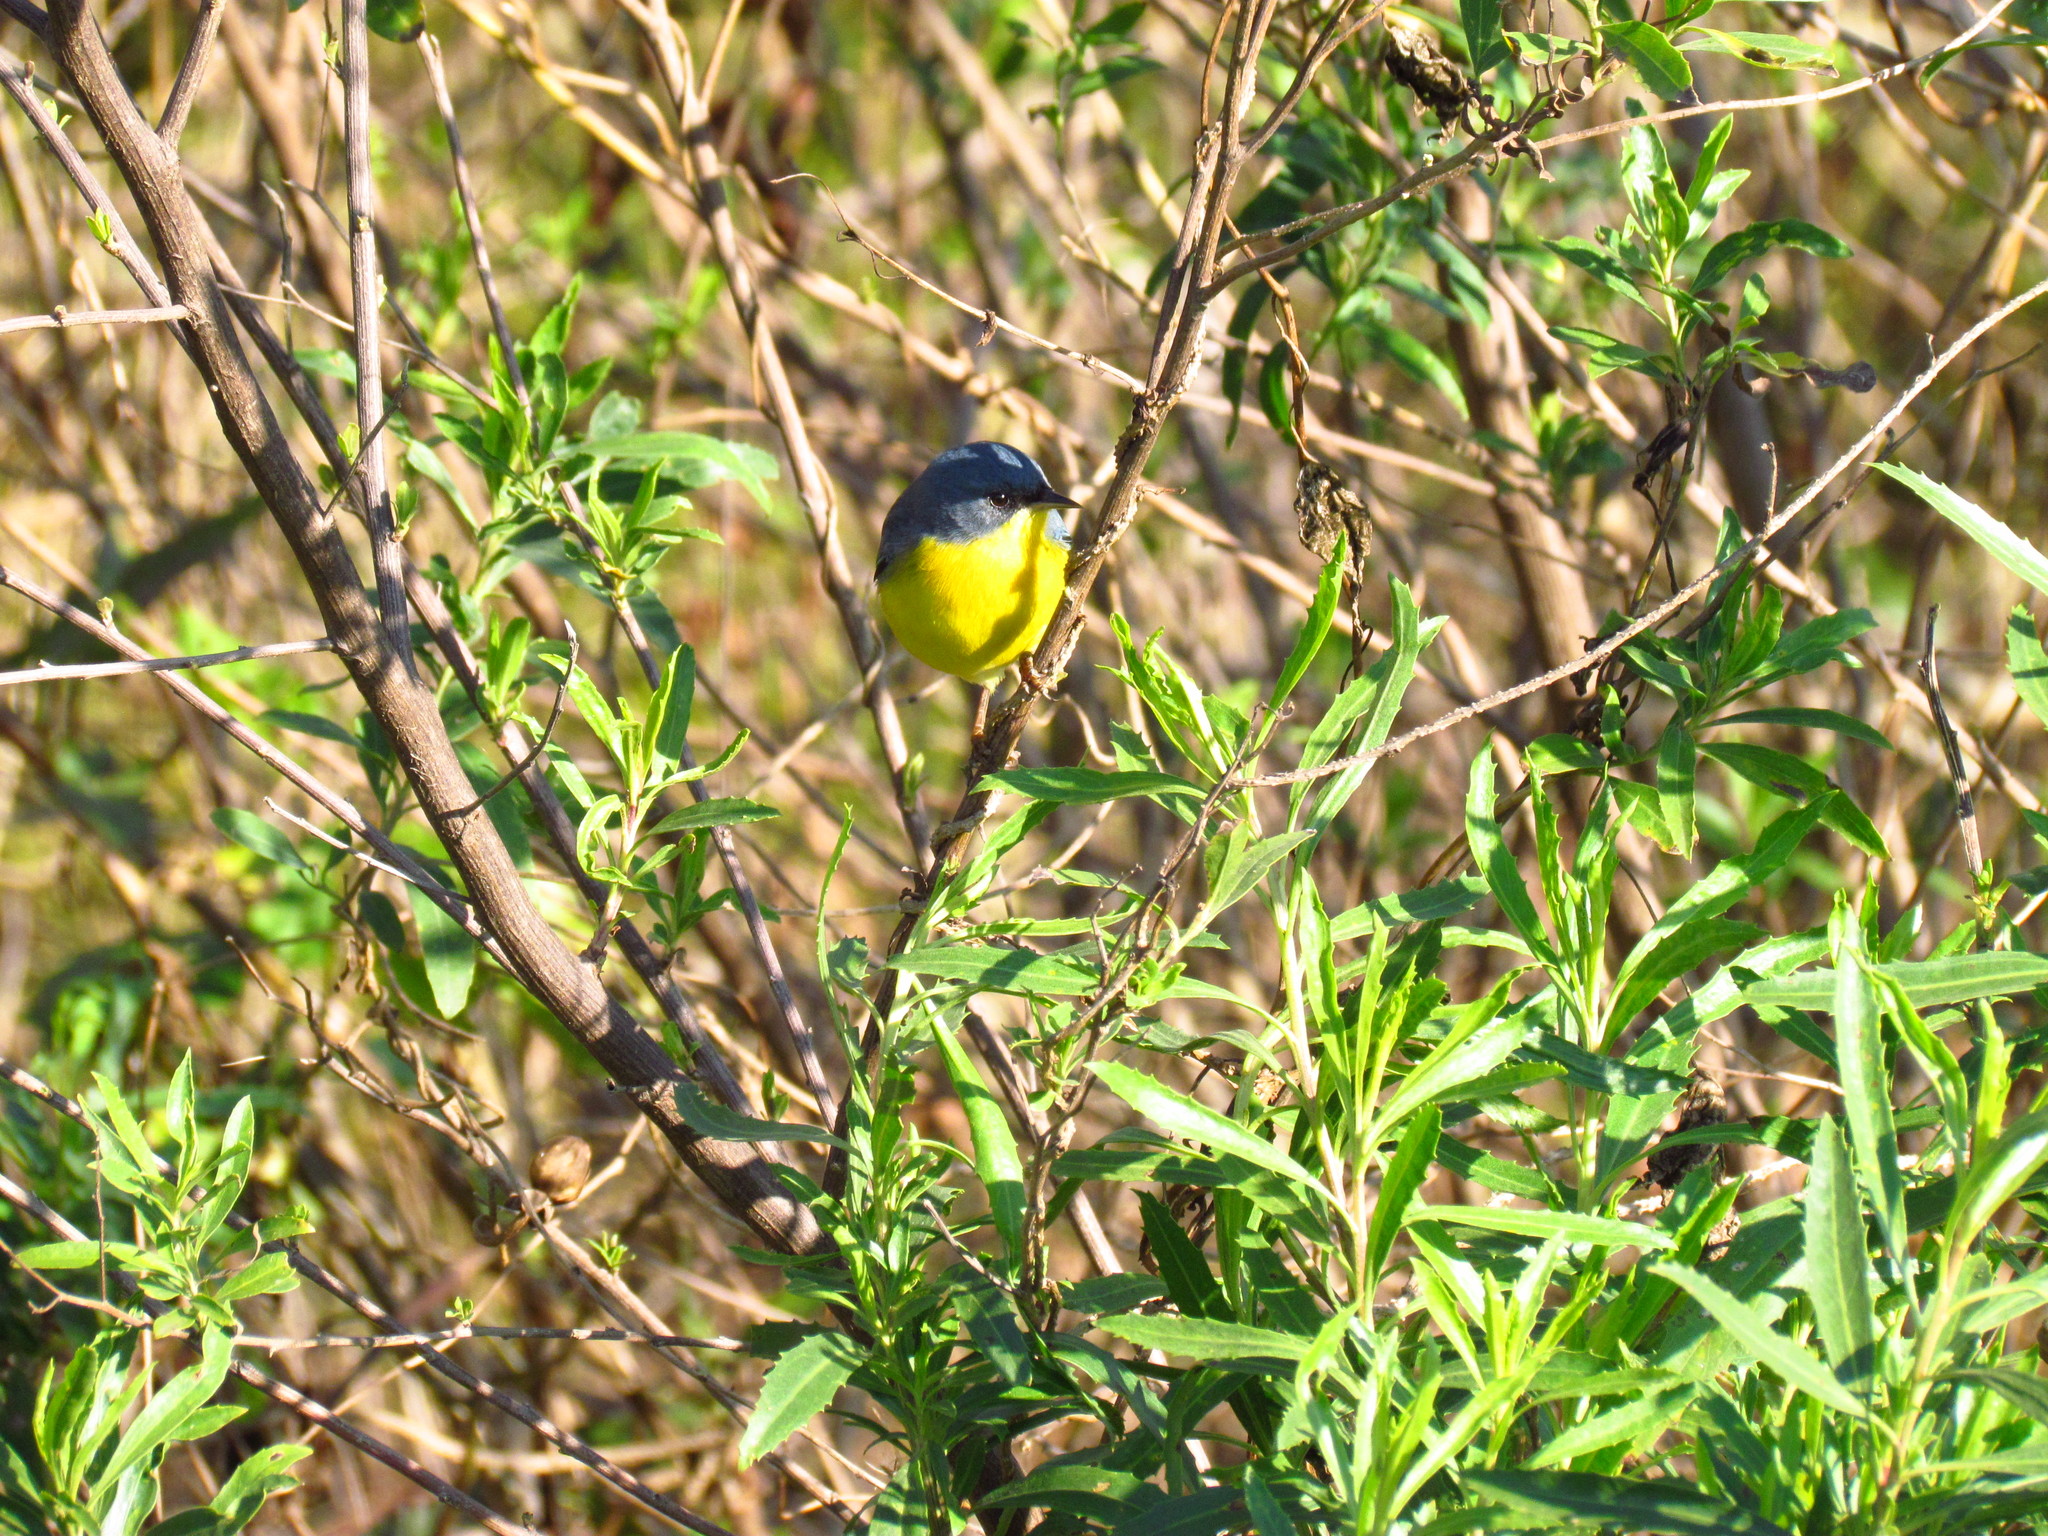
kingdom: Animalia
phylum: Chordata
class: Aves
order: Passeriformes
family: Parulidae
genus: Setophaga
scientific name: Setophaga pitiayumi
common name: Tropical parula
